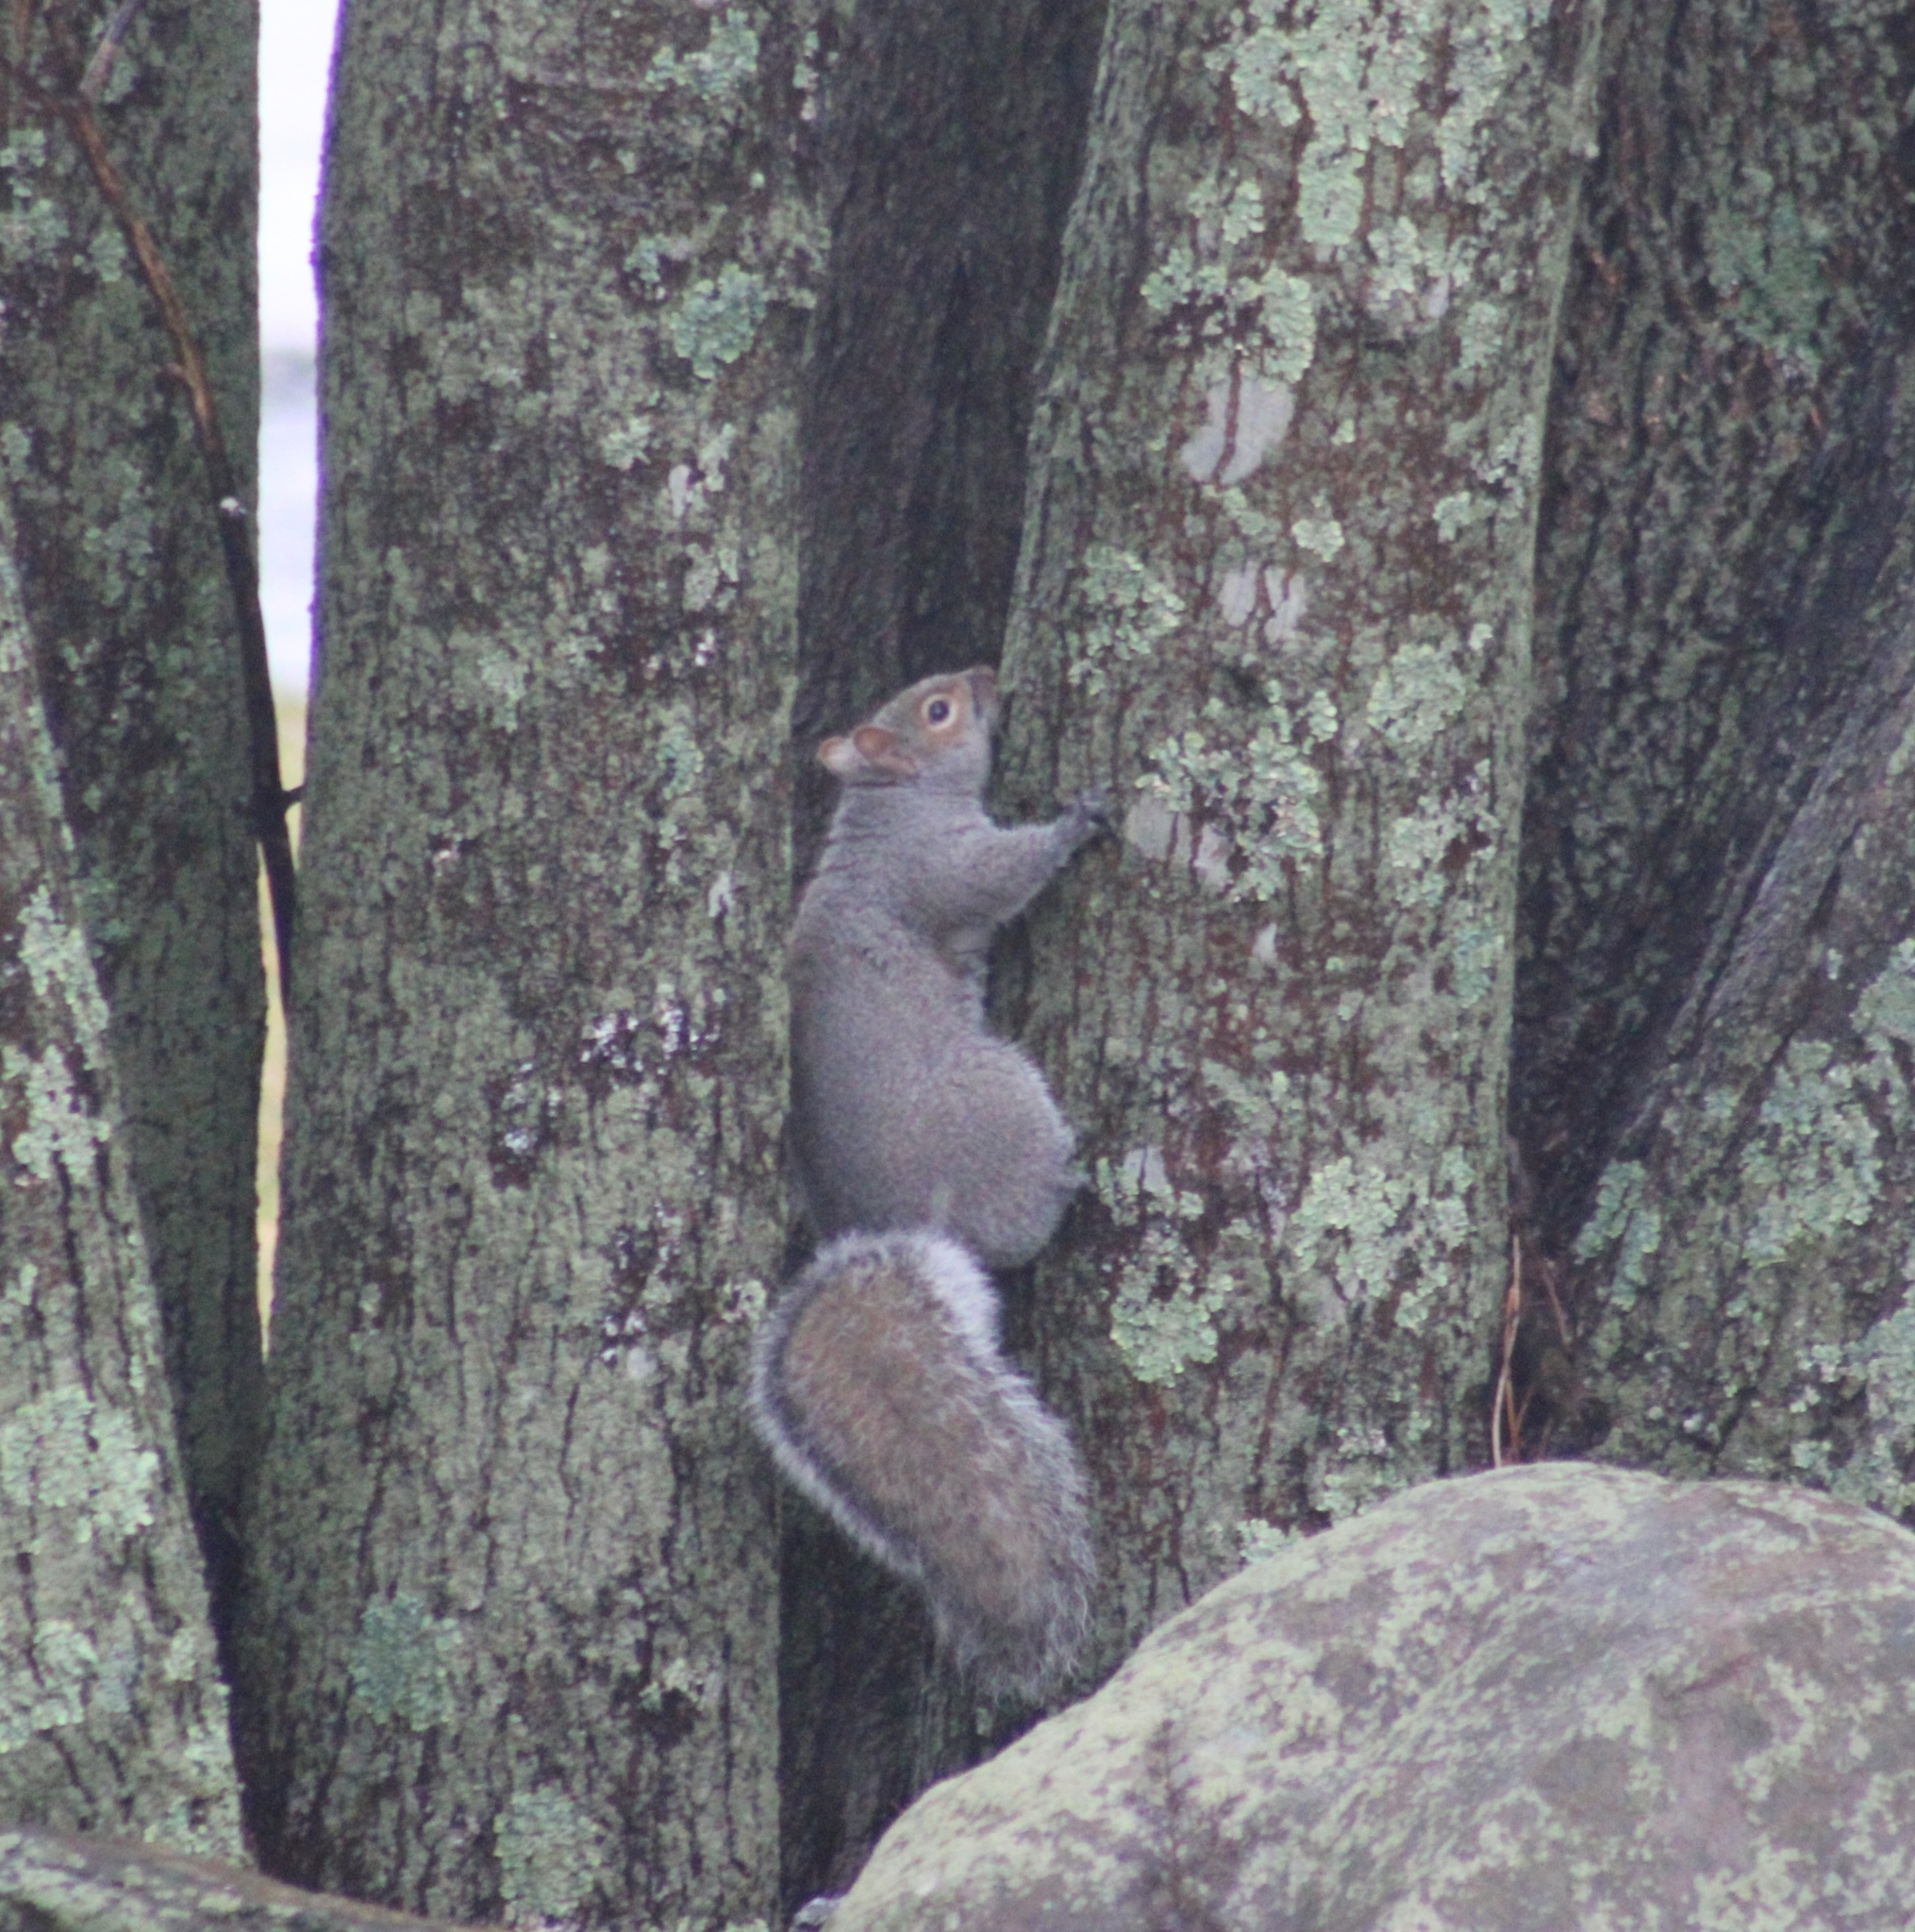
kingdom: Animalia
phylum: Chordata
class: Mammalia
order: Rodentia
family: Sciuridae
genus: Sciurus
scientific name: Sciurus carolinensis
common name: Eastern gray squirrel
